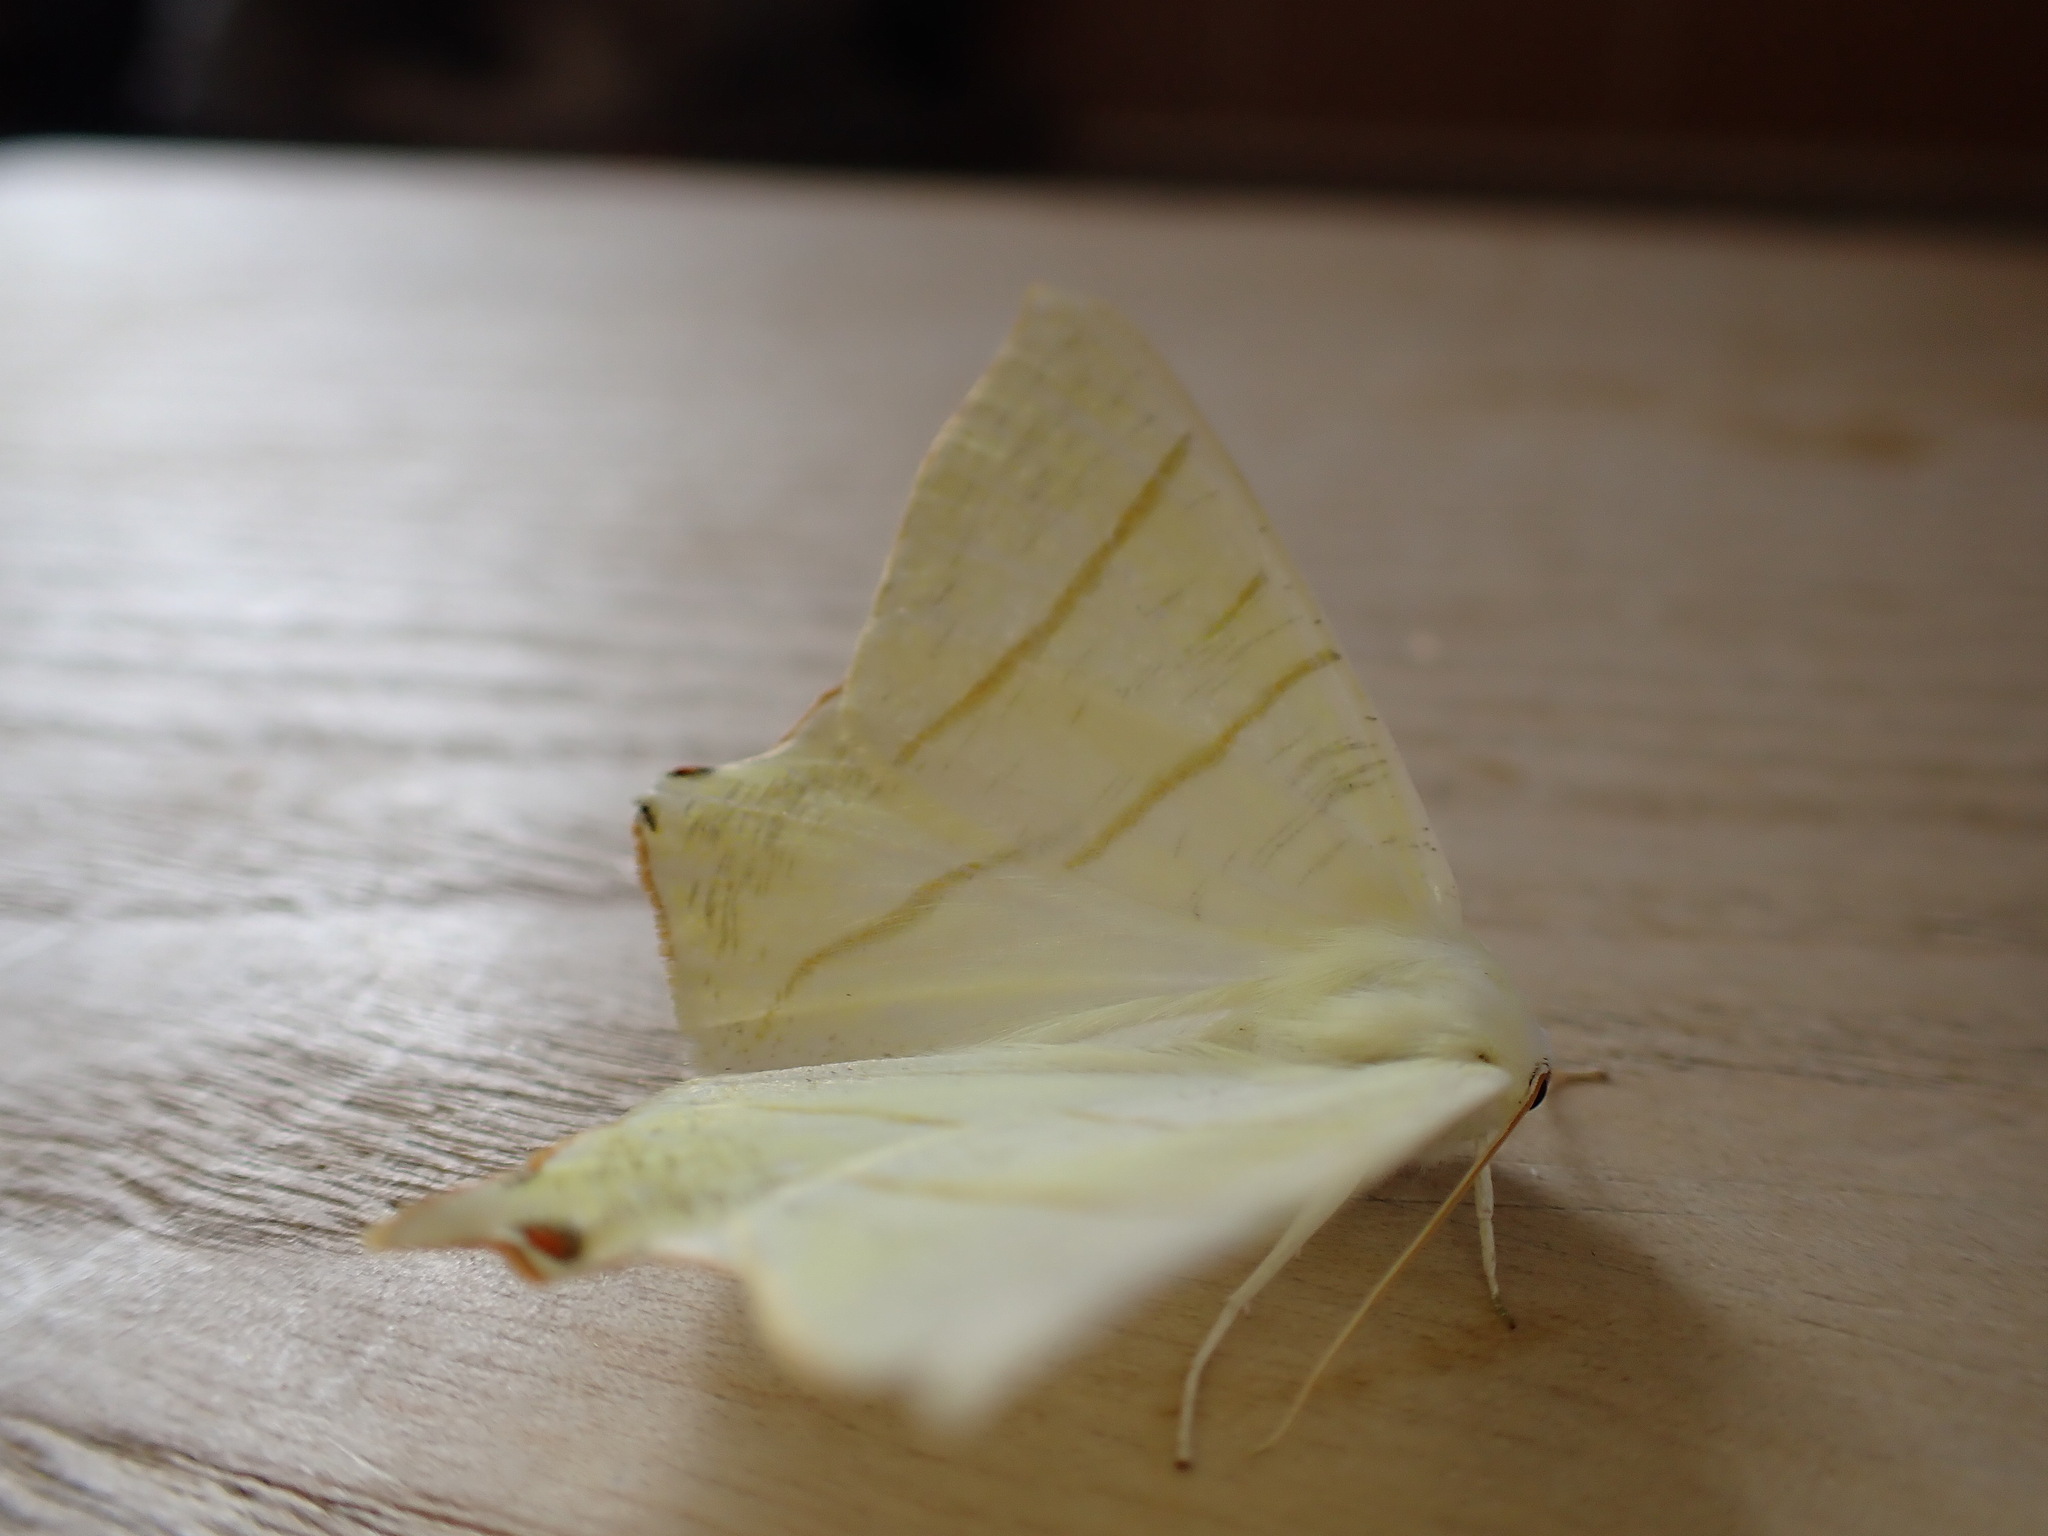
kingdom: Animalia
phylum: Arthropoda
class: Insecta
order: Lepidoptera
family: Geometridae
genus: Ourapteryx
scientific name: Ourapteryx sambucaria
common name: Swallow-tailed moth
